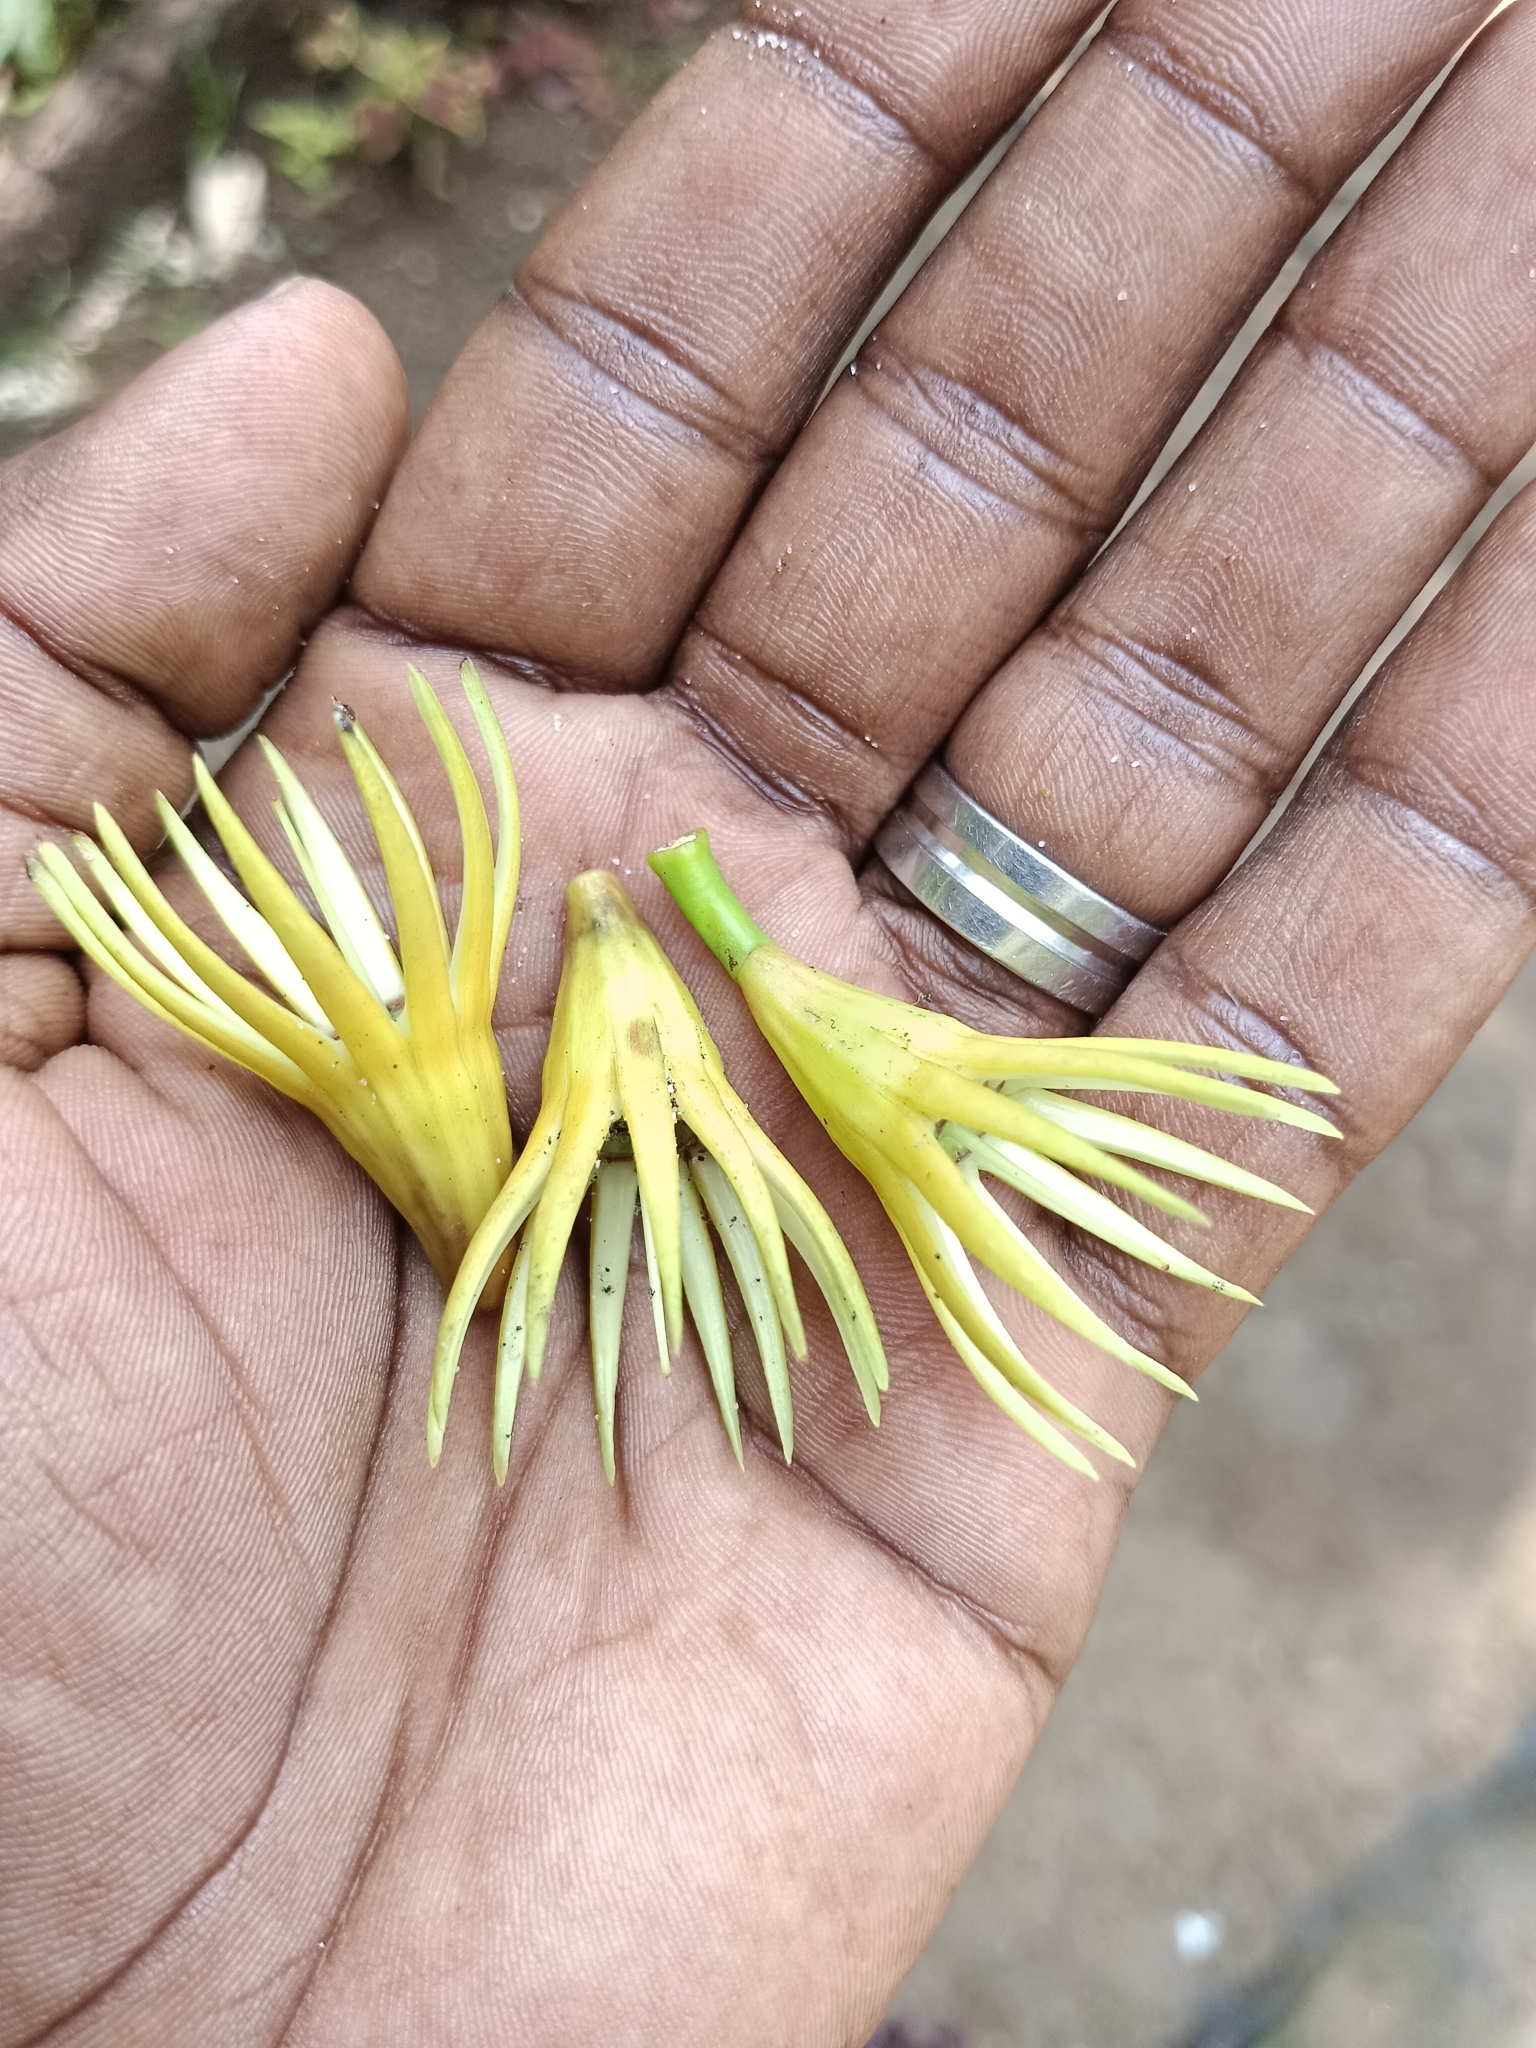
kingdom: Plantae
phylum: Tracheophyta
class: Magnoliopsida
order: Malpighiales
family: Rhizophoraceae
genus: Bruguiera
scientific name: Bruguiera gymnorhiza
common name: Oriental mangrove
